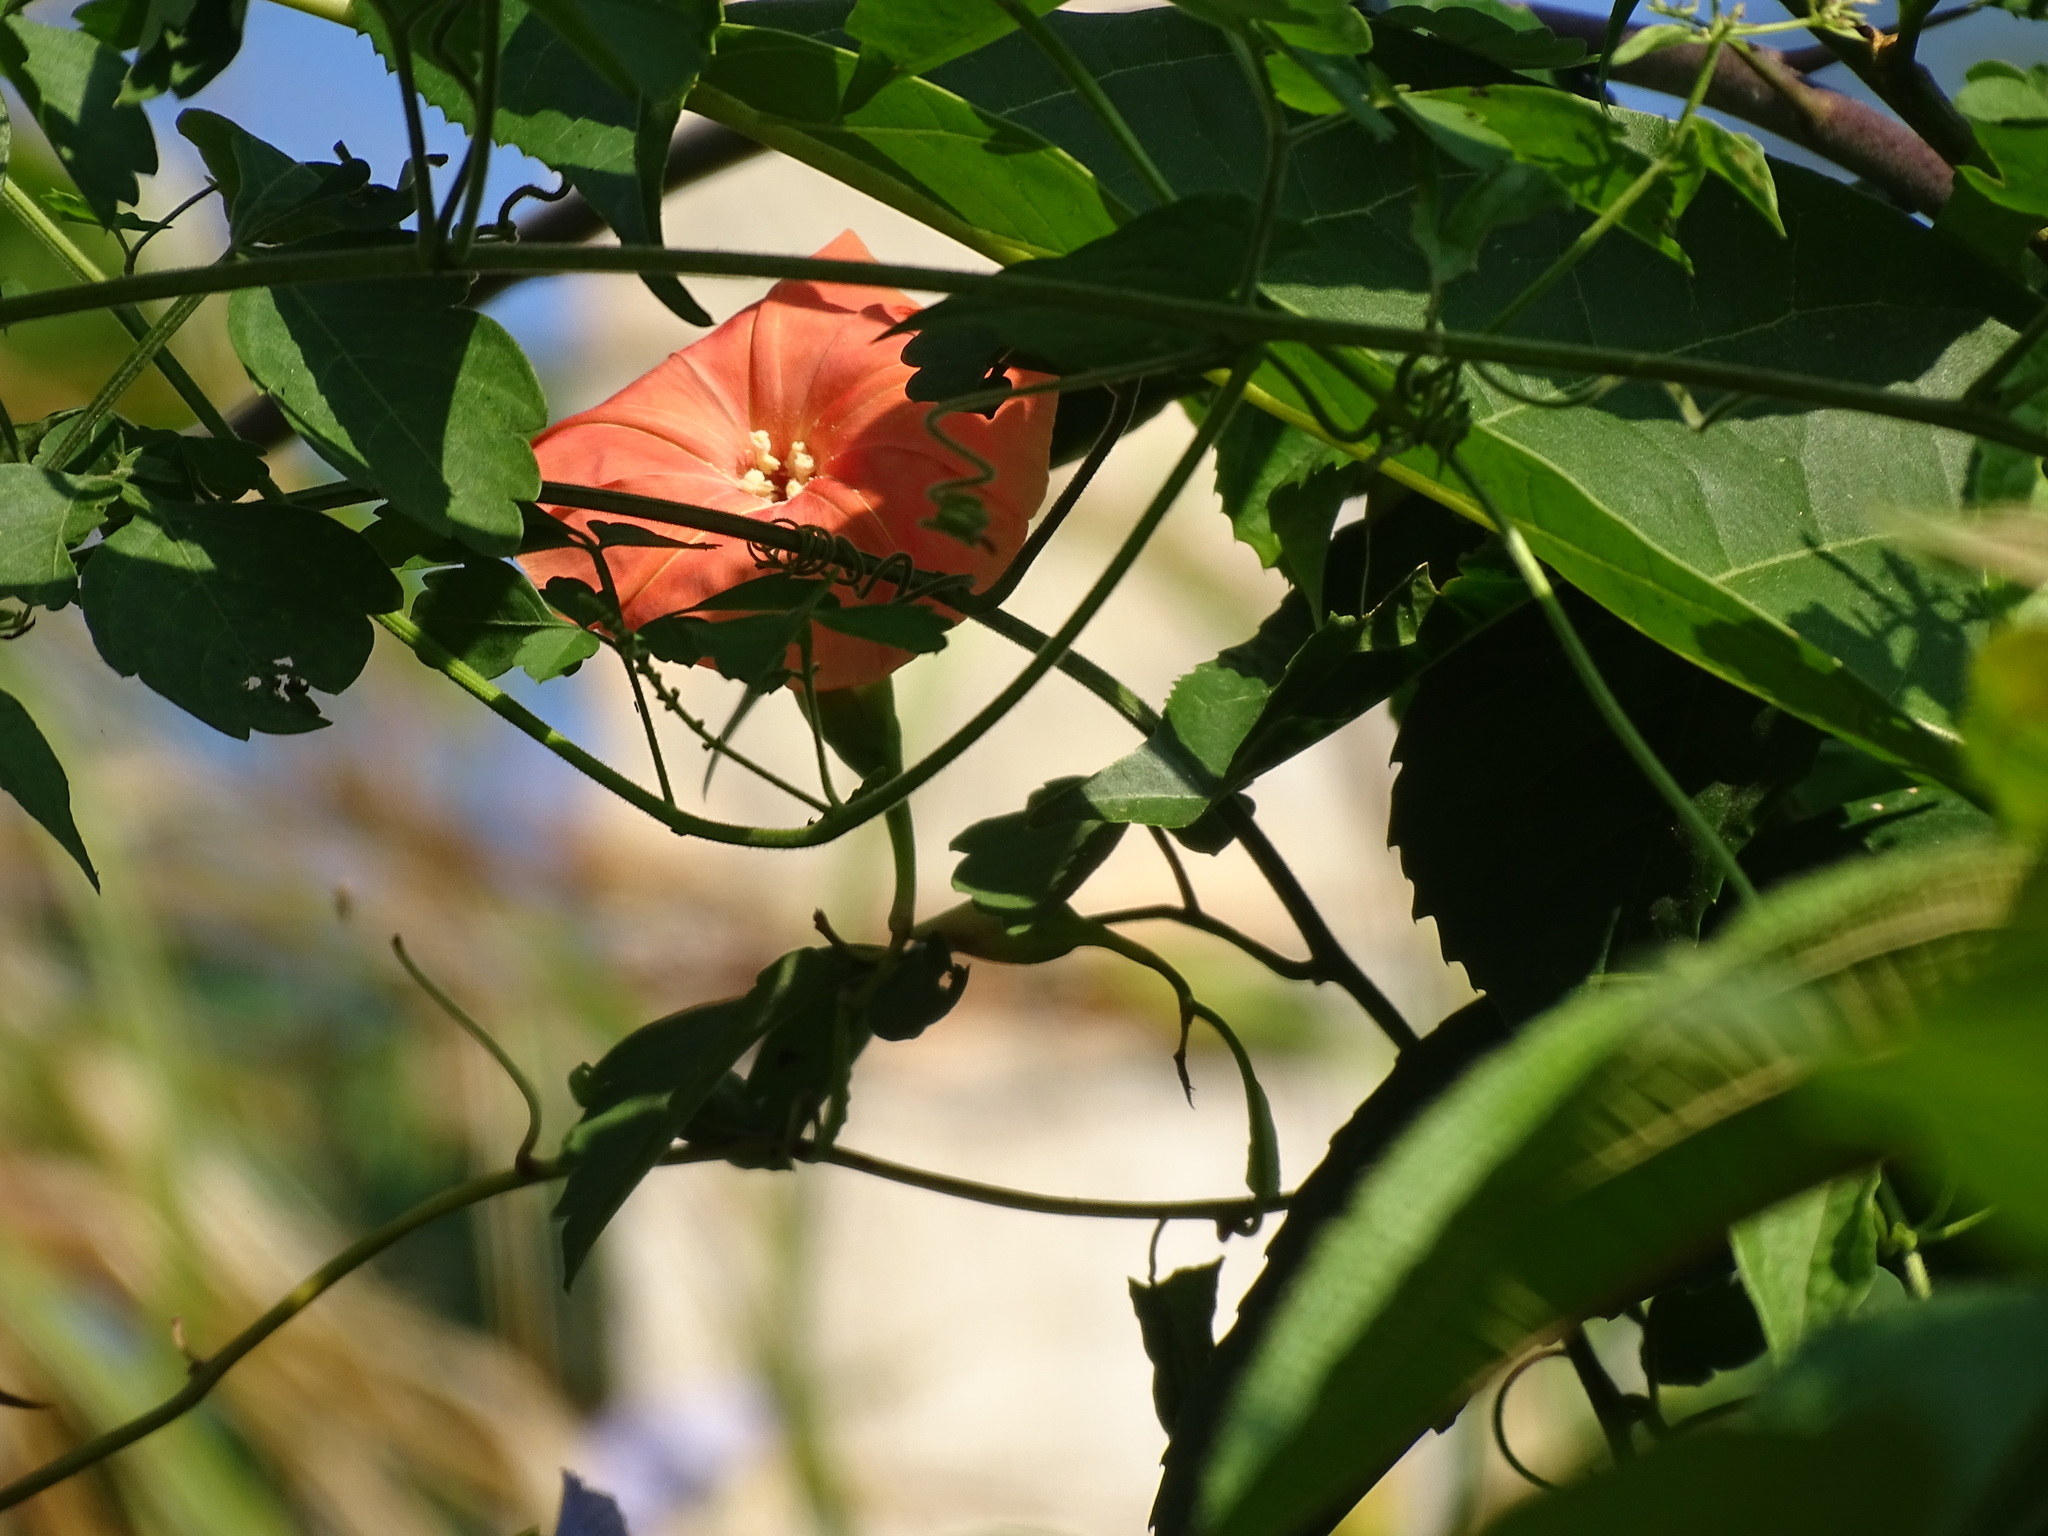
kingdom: Plantae
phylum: Tracheophyta
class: Magnoliopsida
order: Solanales
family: Convolvulaceae
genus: Operculina
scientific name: Operculina pteripes
